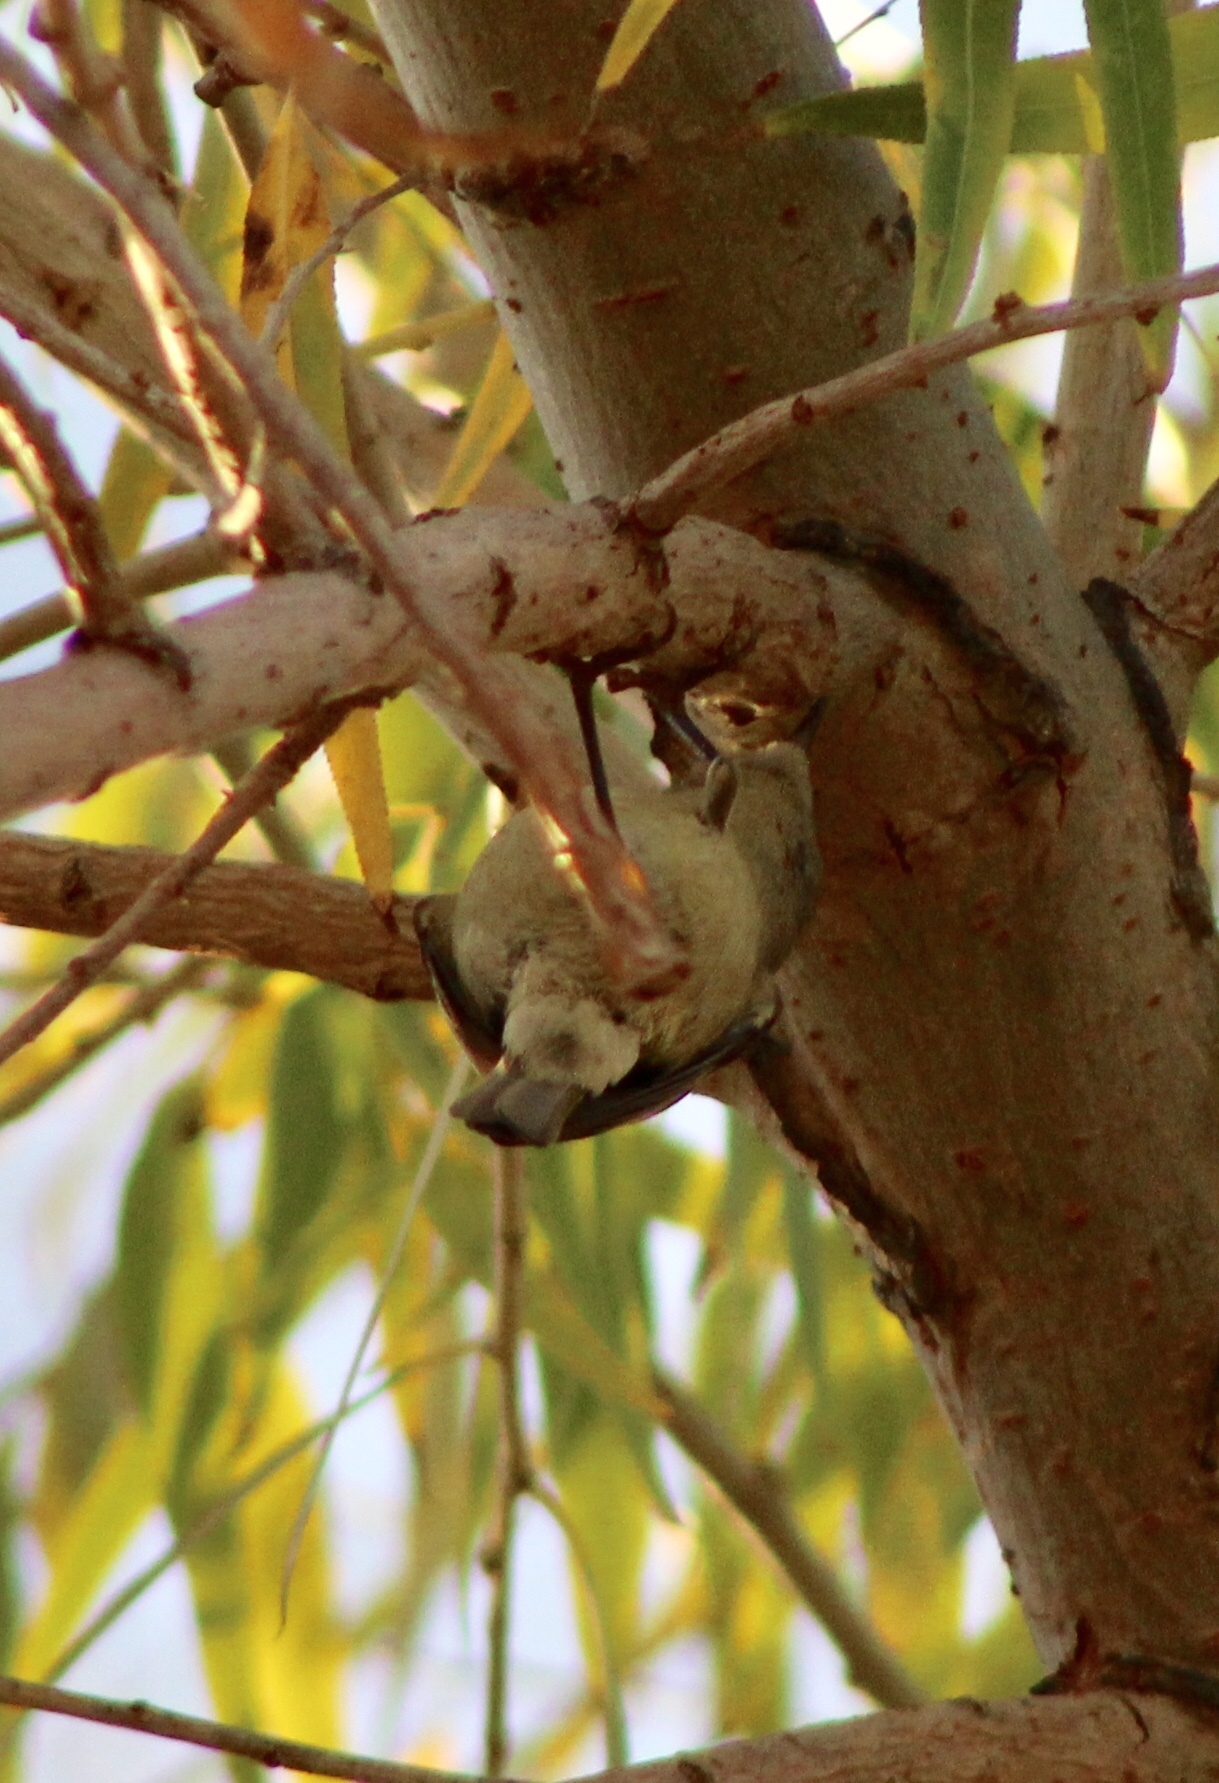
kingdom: Animalia
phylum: Chordata
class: Aves
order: Passeriformes
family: Regulidae
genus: Regulus
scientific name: Regulus calendula
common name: Ruby-crowned kinglet
